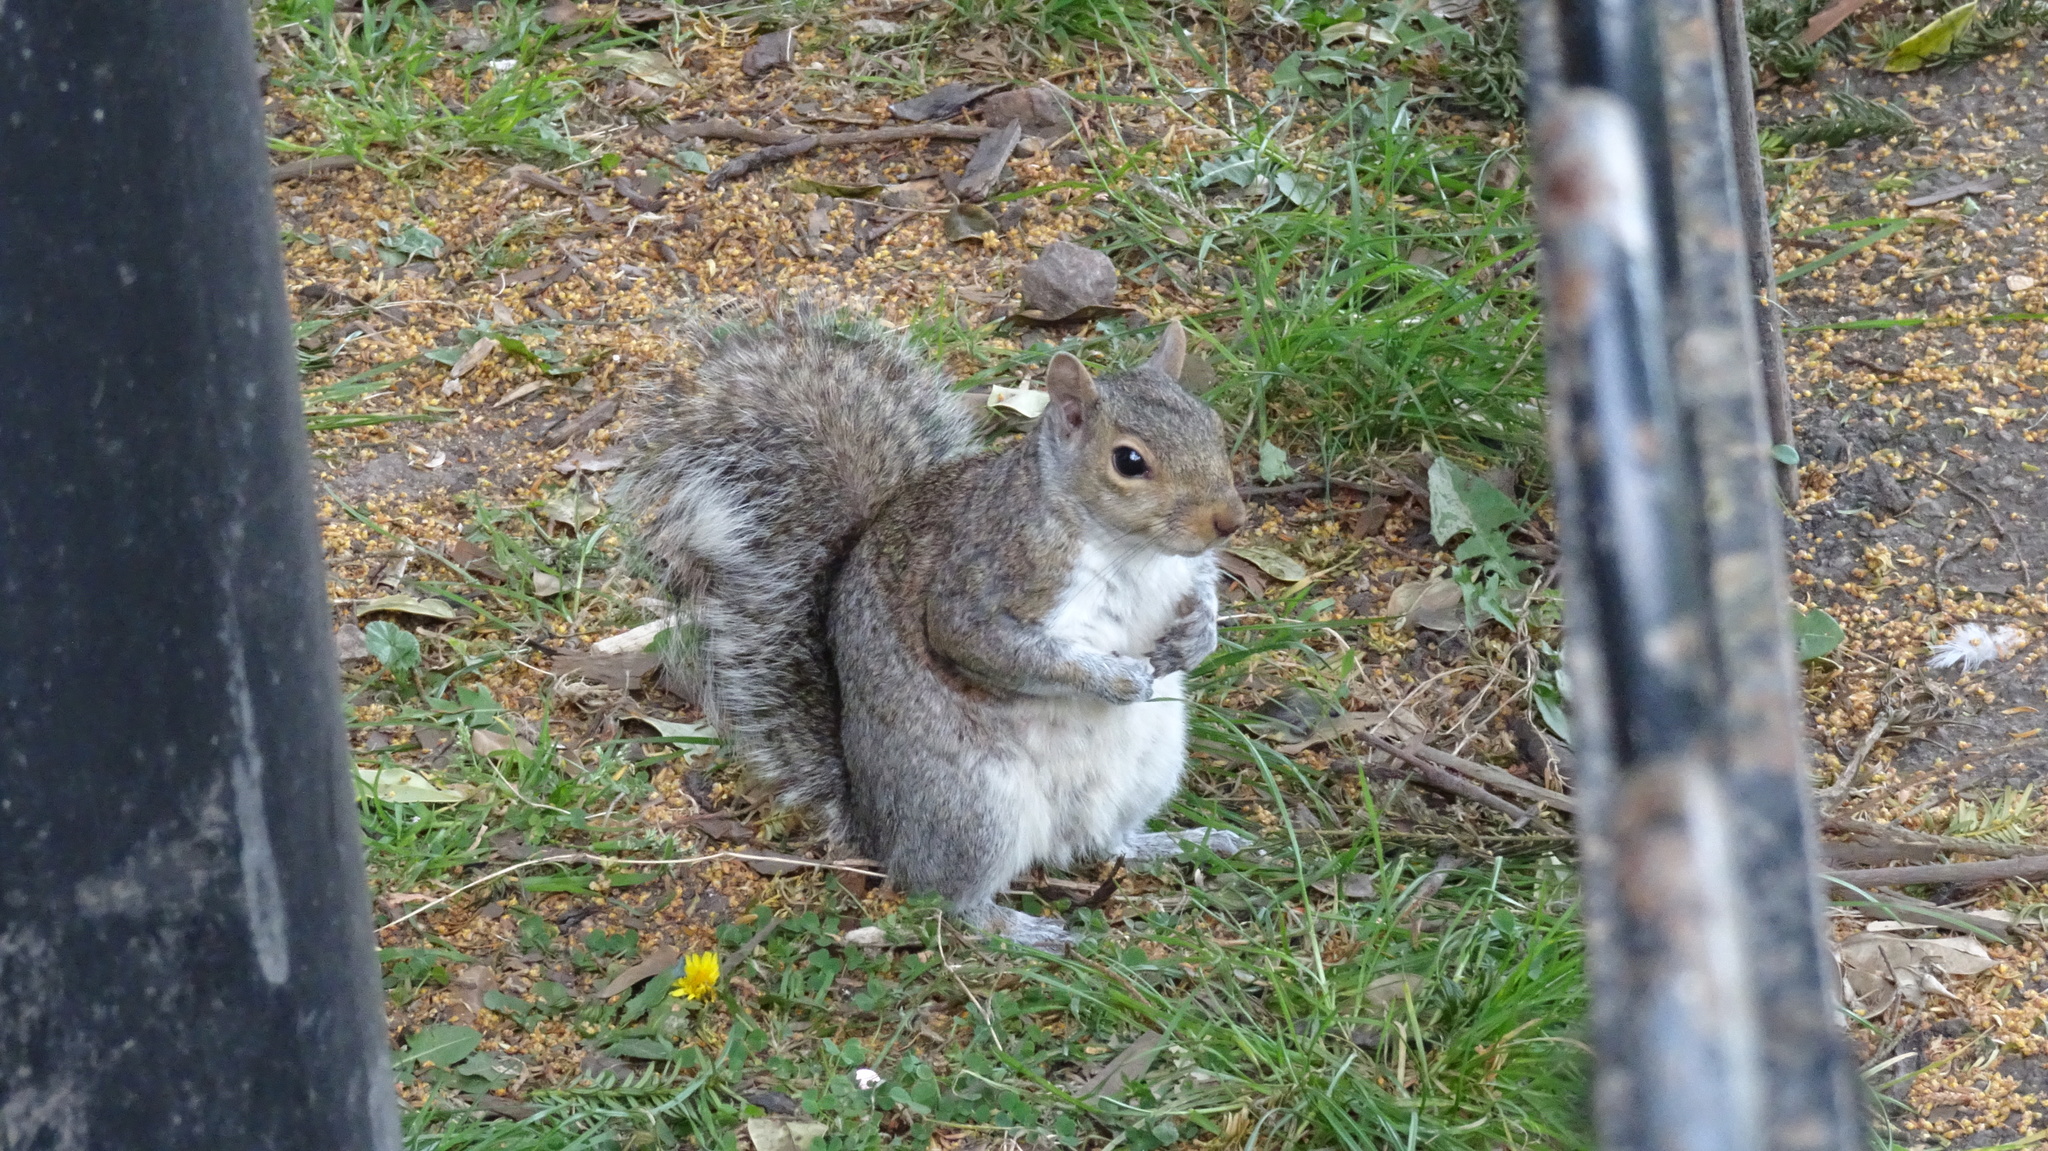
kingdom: Animalia
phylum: Chordata
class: Mammalia
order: Rodentia
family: Sciuridae
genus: Sciurus
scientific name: Sciurus carolinensis
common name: Eastern gray squirrel
